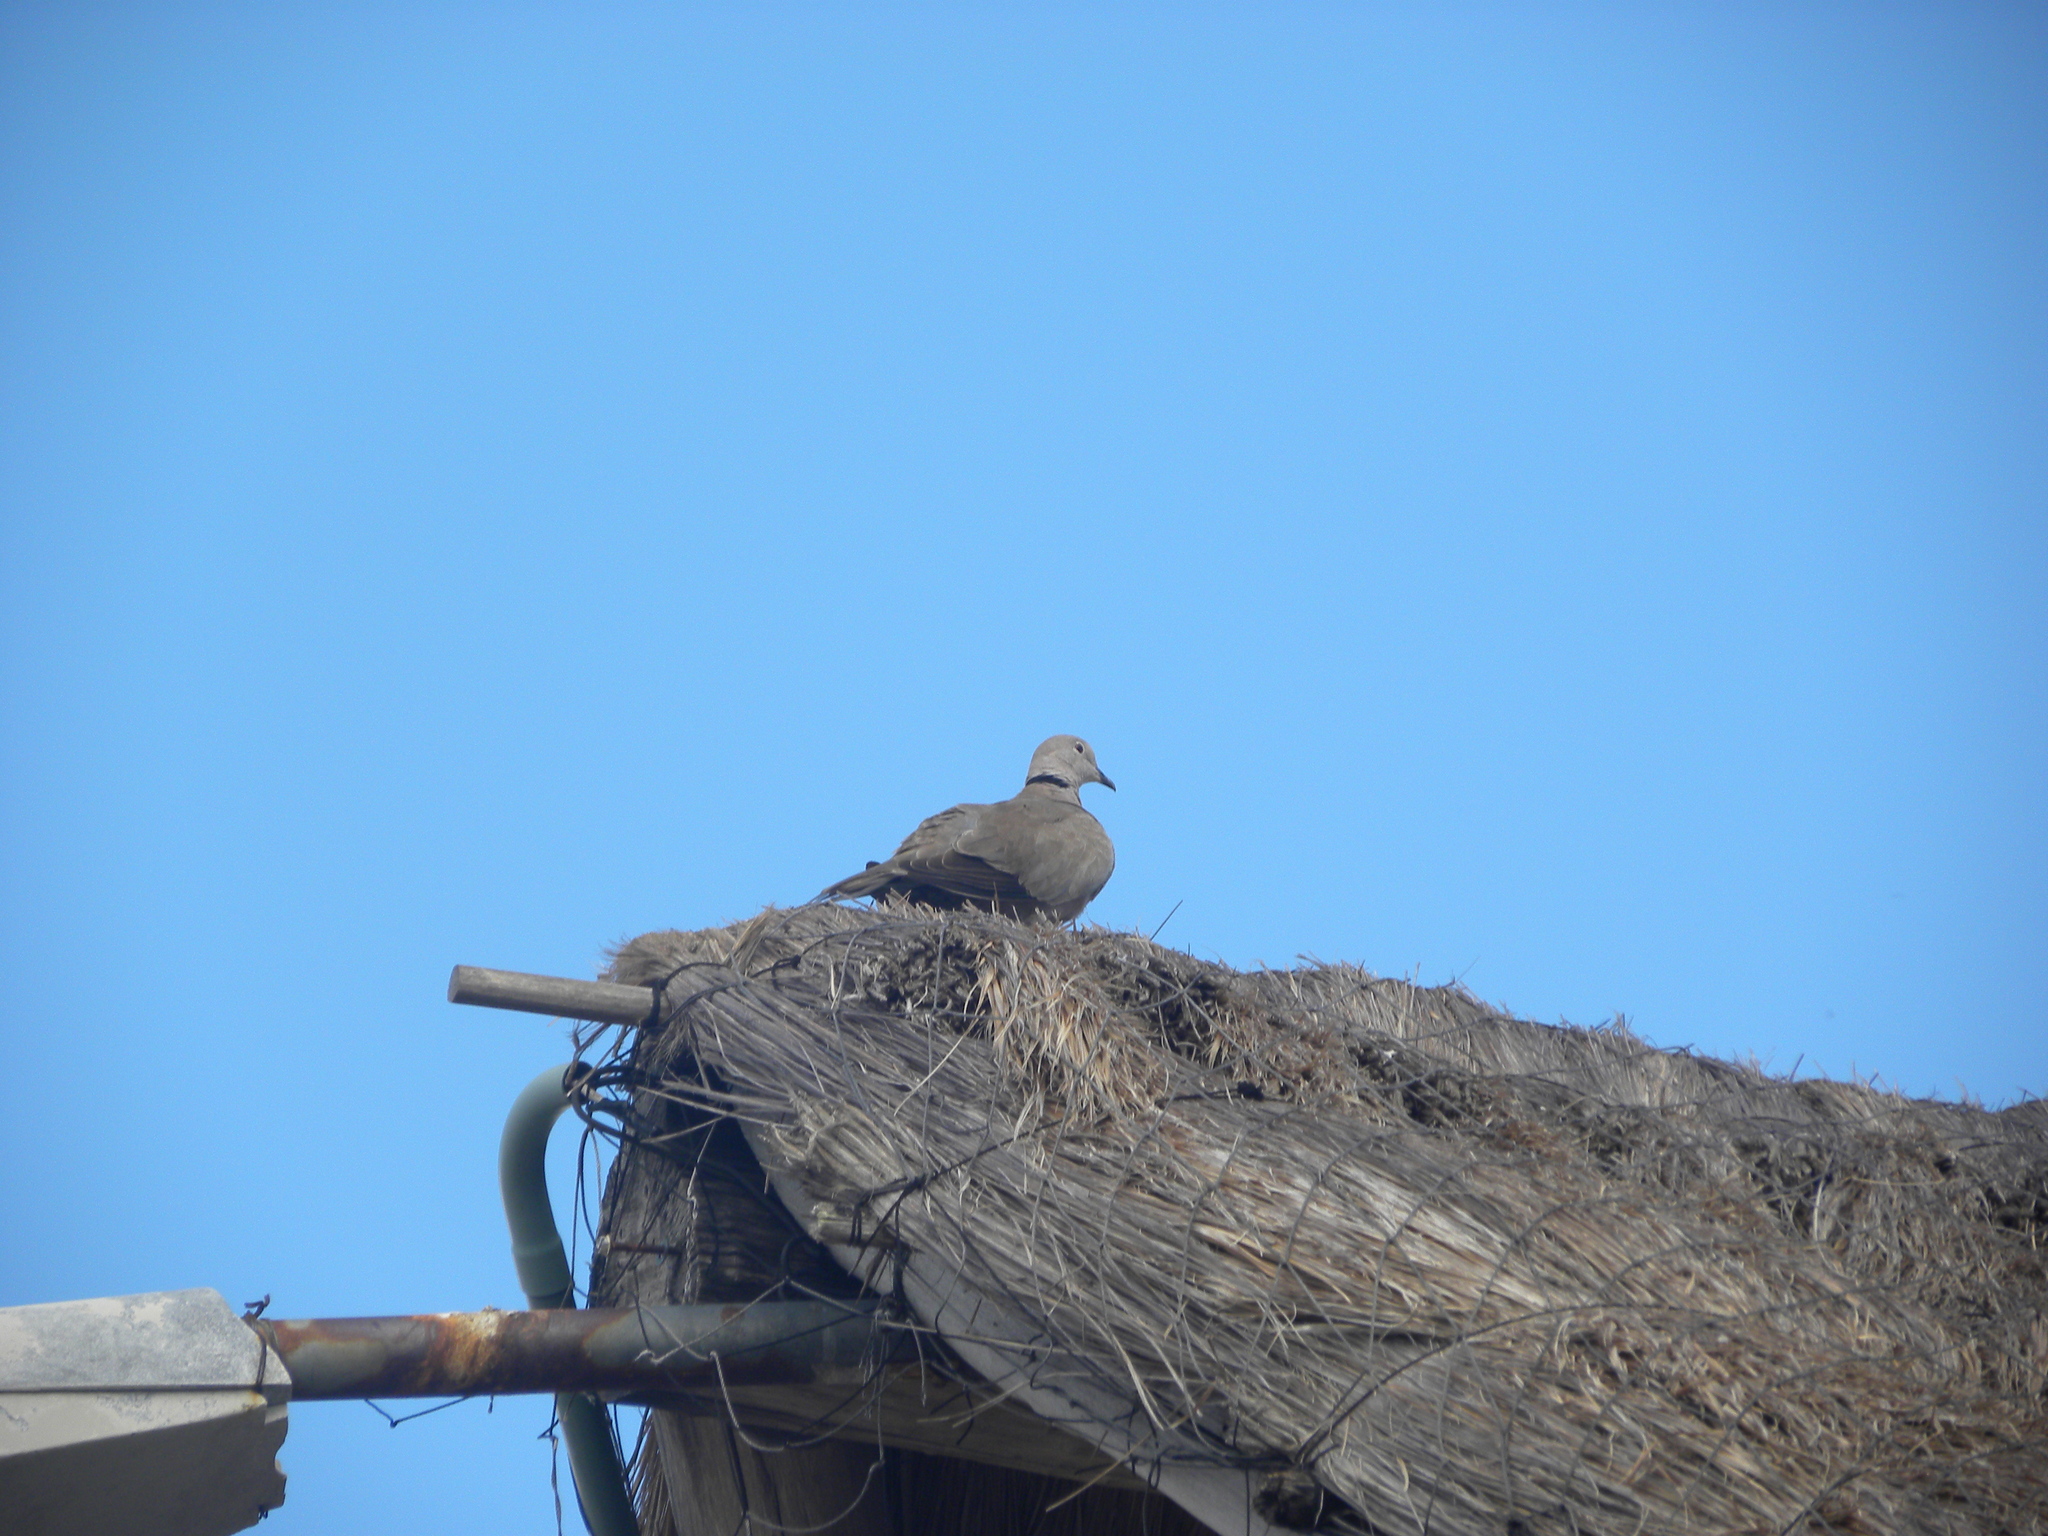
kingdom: Animalia
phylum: Chordata
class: Aves
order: Columbiformes
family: Columbidae
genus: Streptopelia
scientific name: Streptopelia decaocto
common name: Eurasian collared dove
